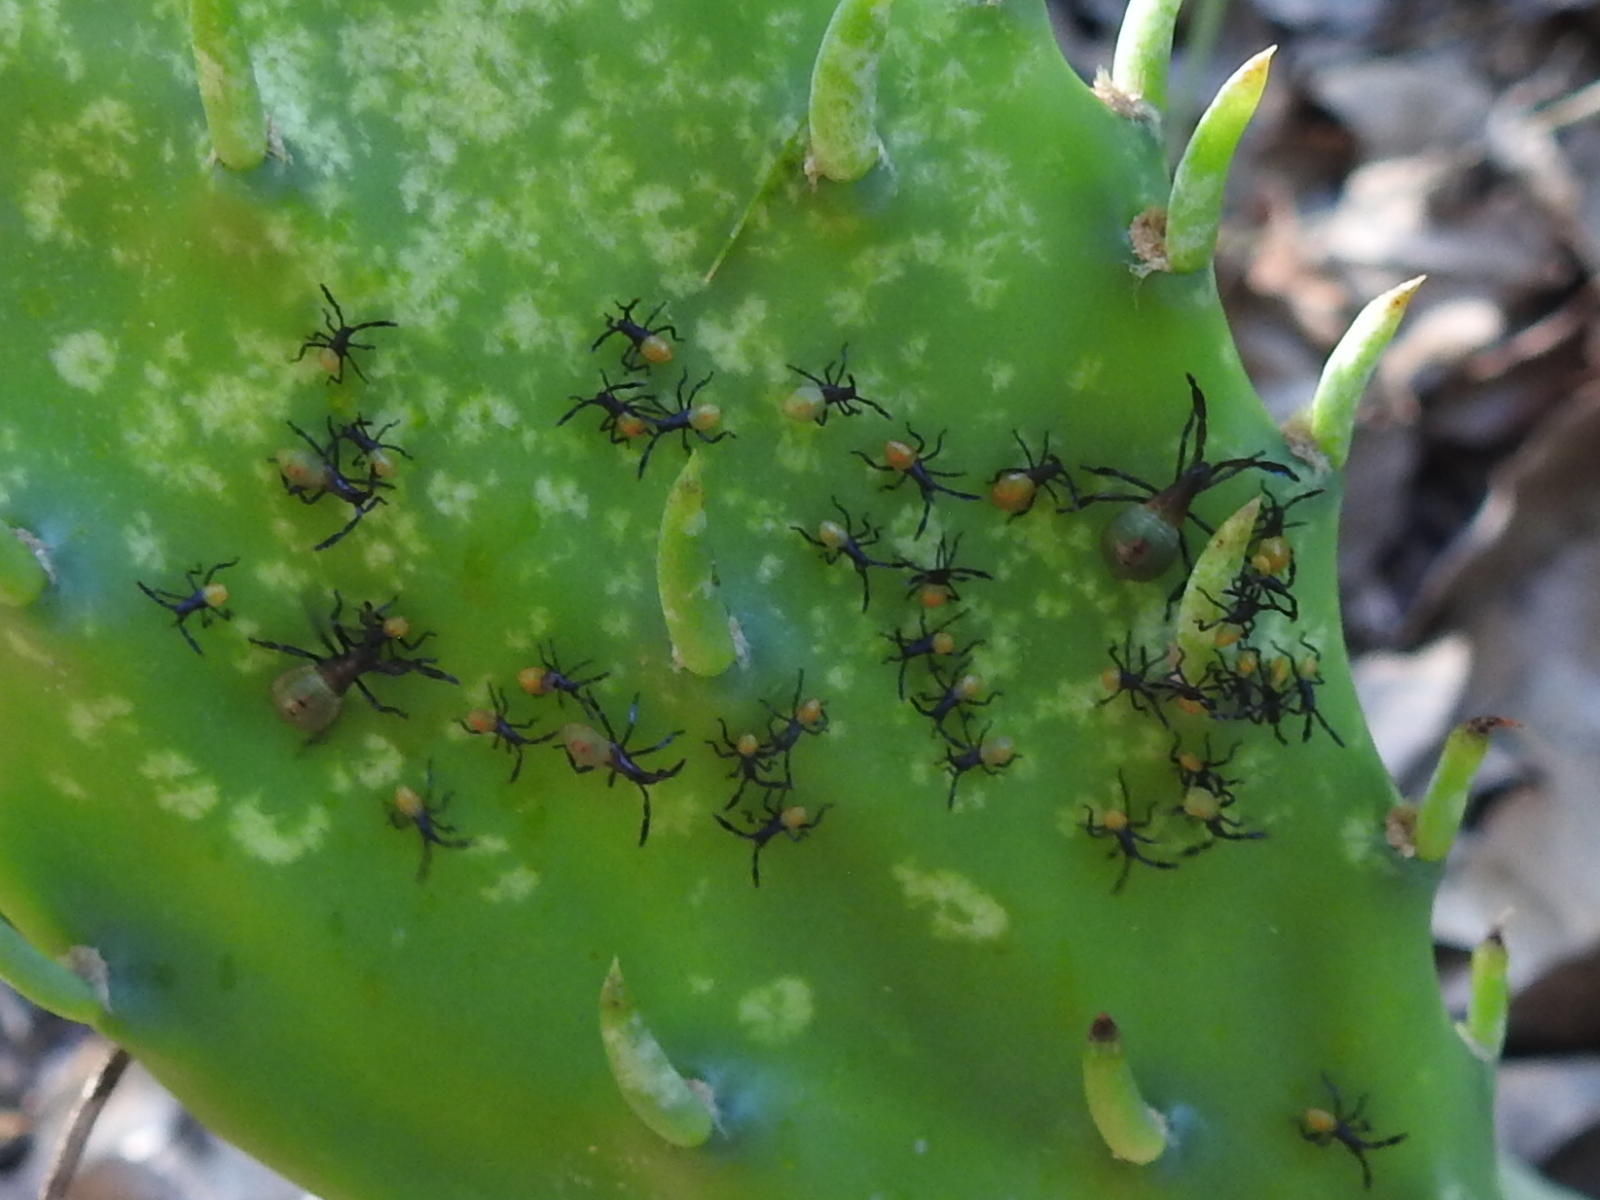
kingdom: Animalia
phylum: Arthropoda
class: Insecta
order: Hemiptera
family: Coreidae
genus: Chelinidea
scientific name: Chelinidea vittiger
